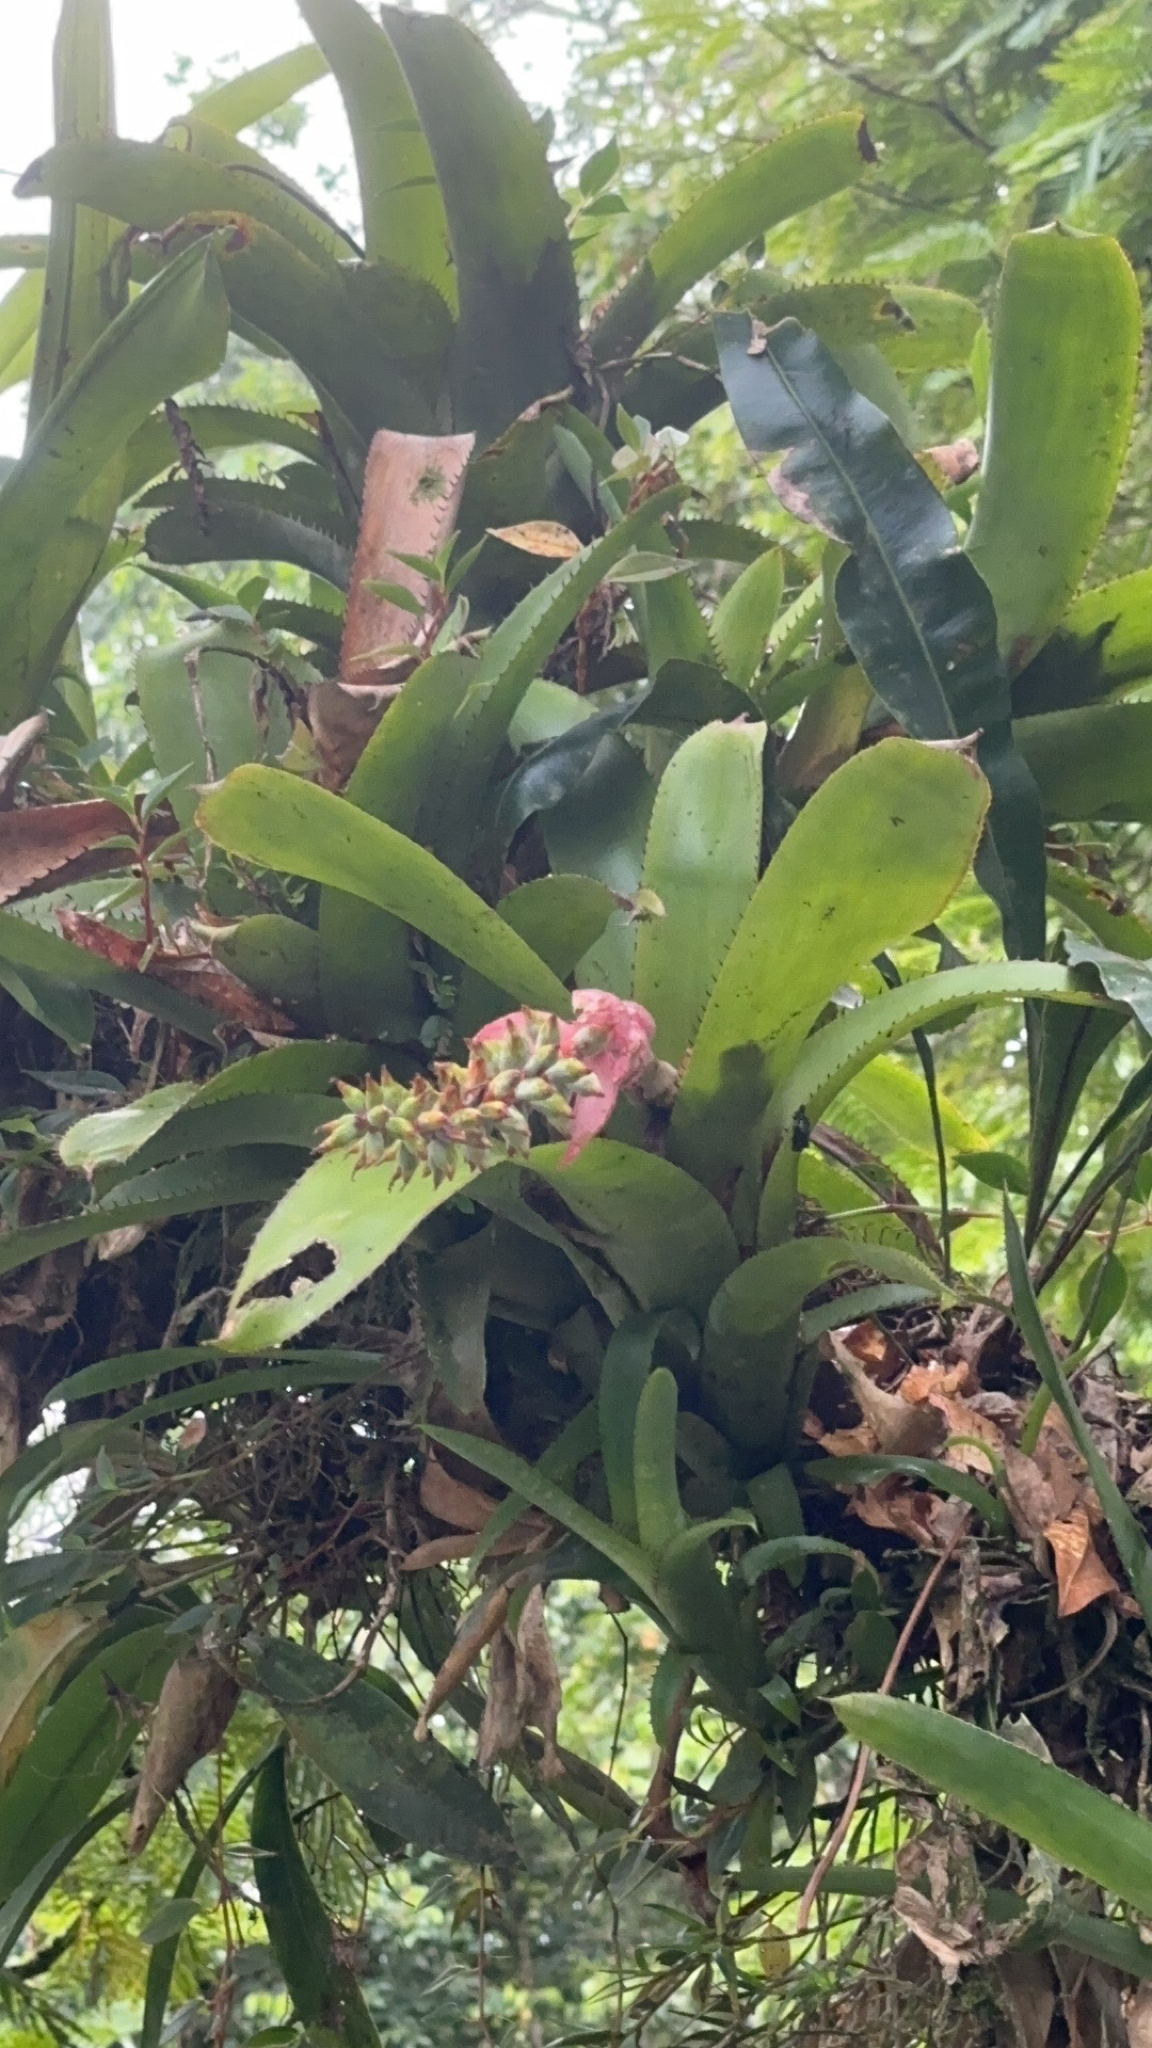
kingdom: Plantae
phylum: Tracheophyta
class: Liliopsida
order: Poales
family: Bromeliaceae
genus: Aechmea
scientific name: Aechmea nudicaulis
